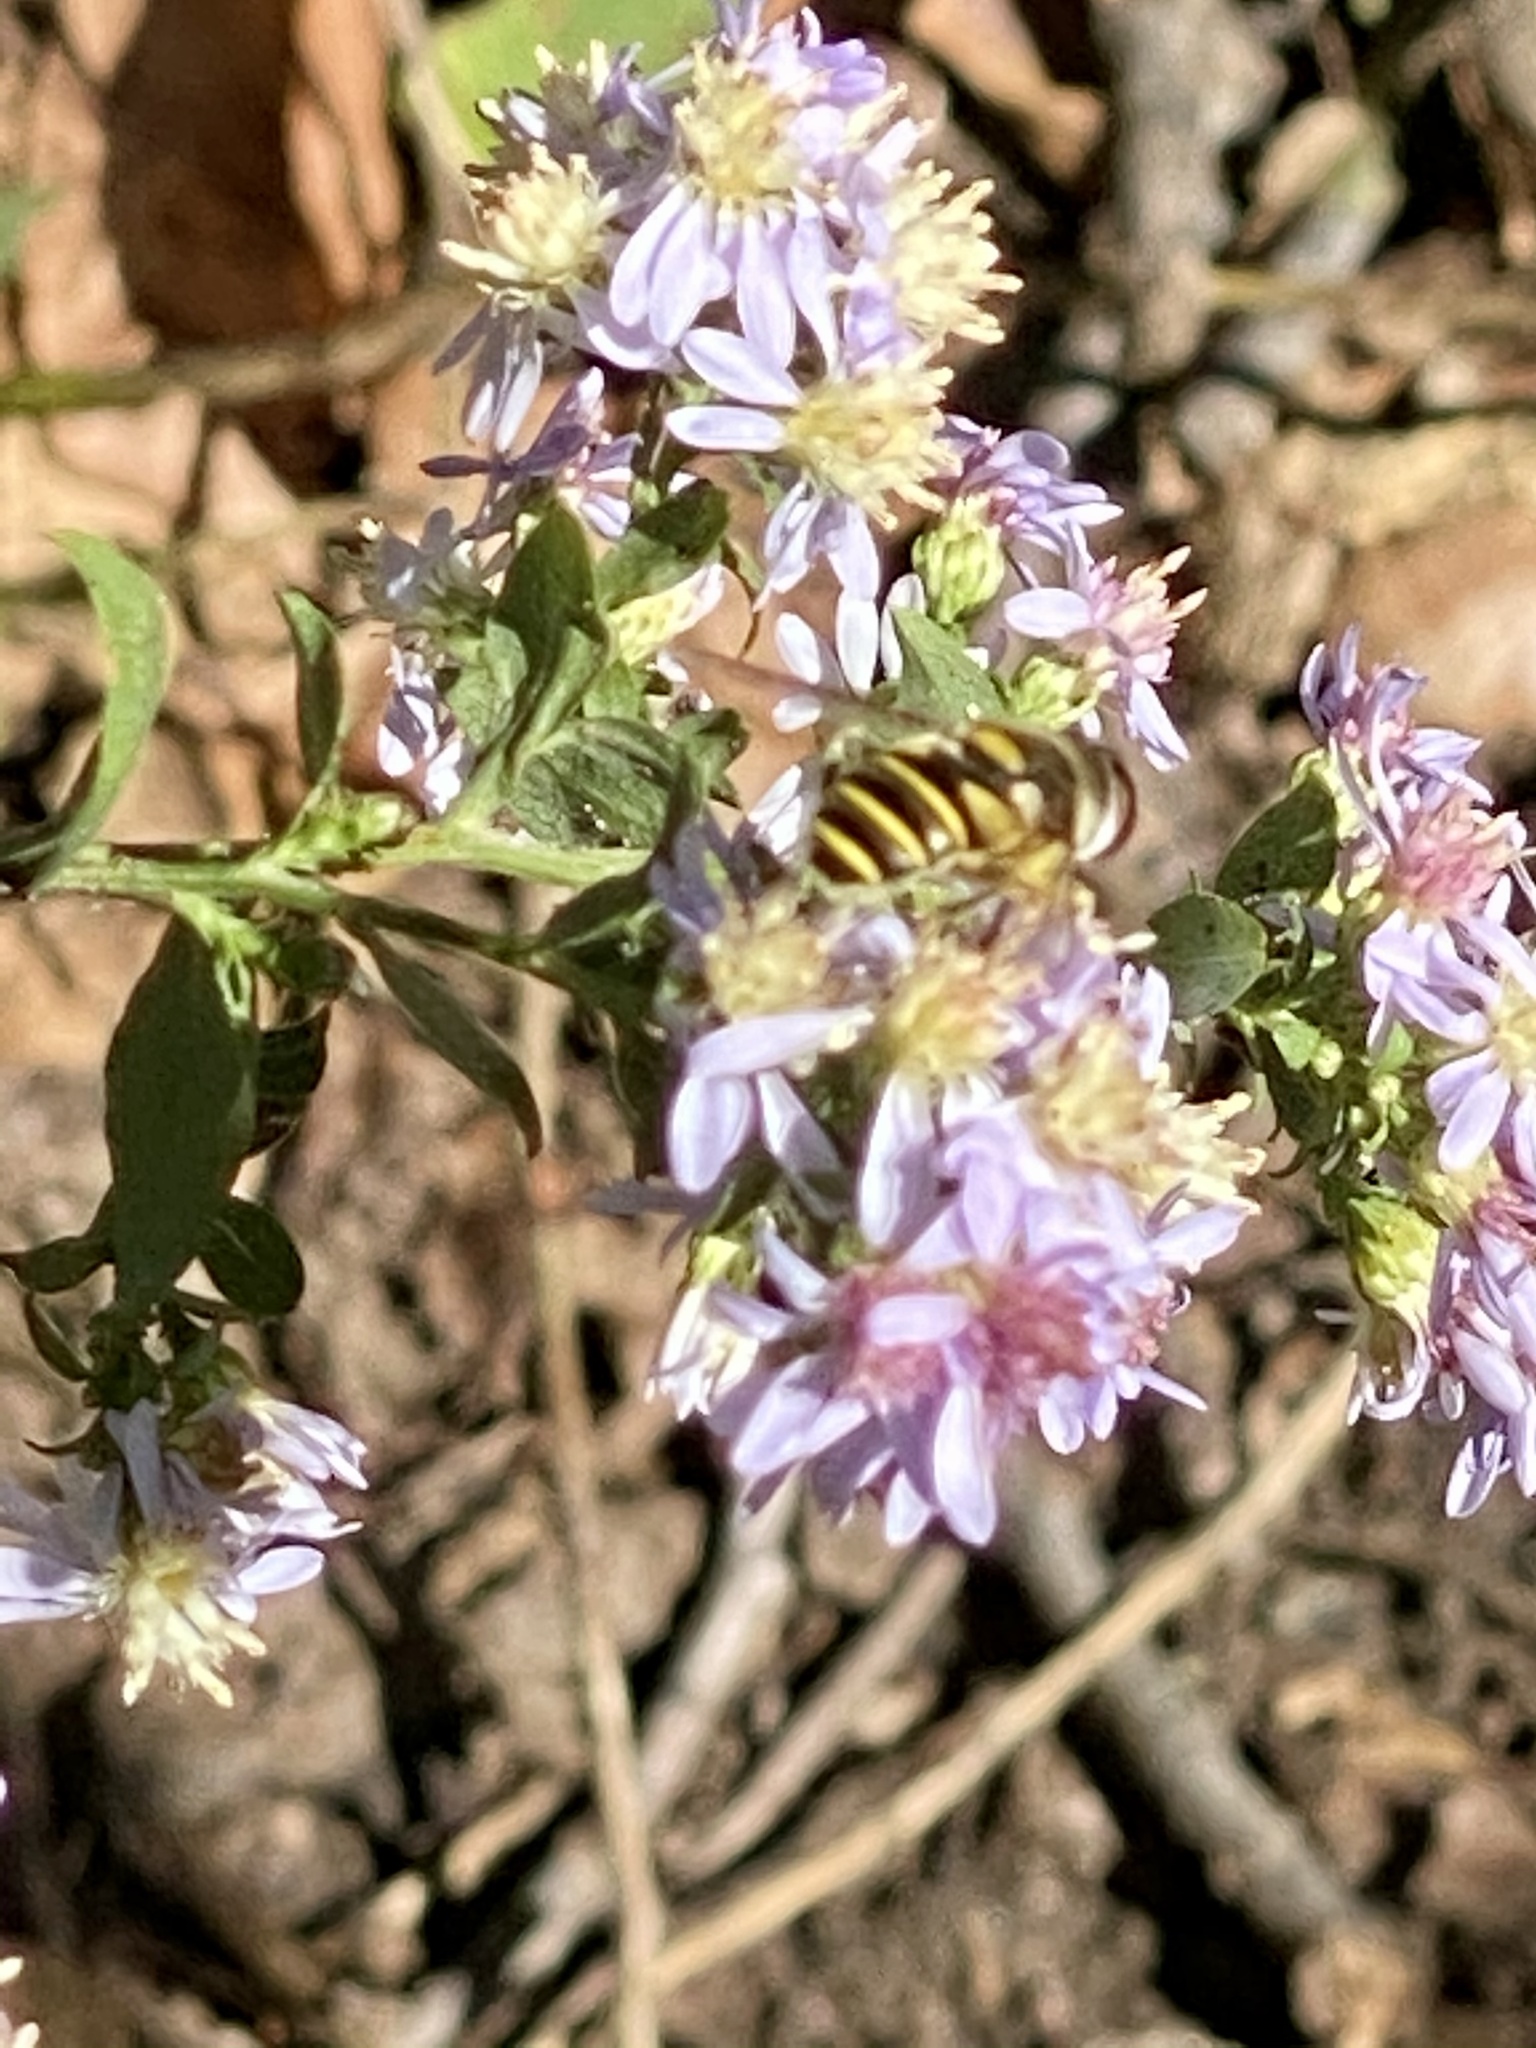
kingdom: Animalia
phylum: Arthropoda
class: Insecta
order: Diptera
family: Syrphidae
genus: Eristalis
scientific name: Eristalis transversa
